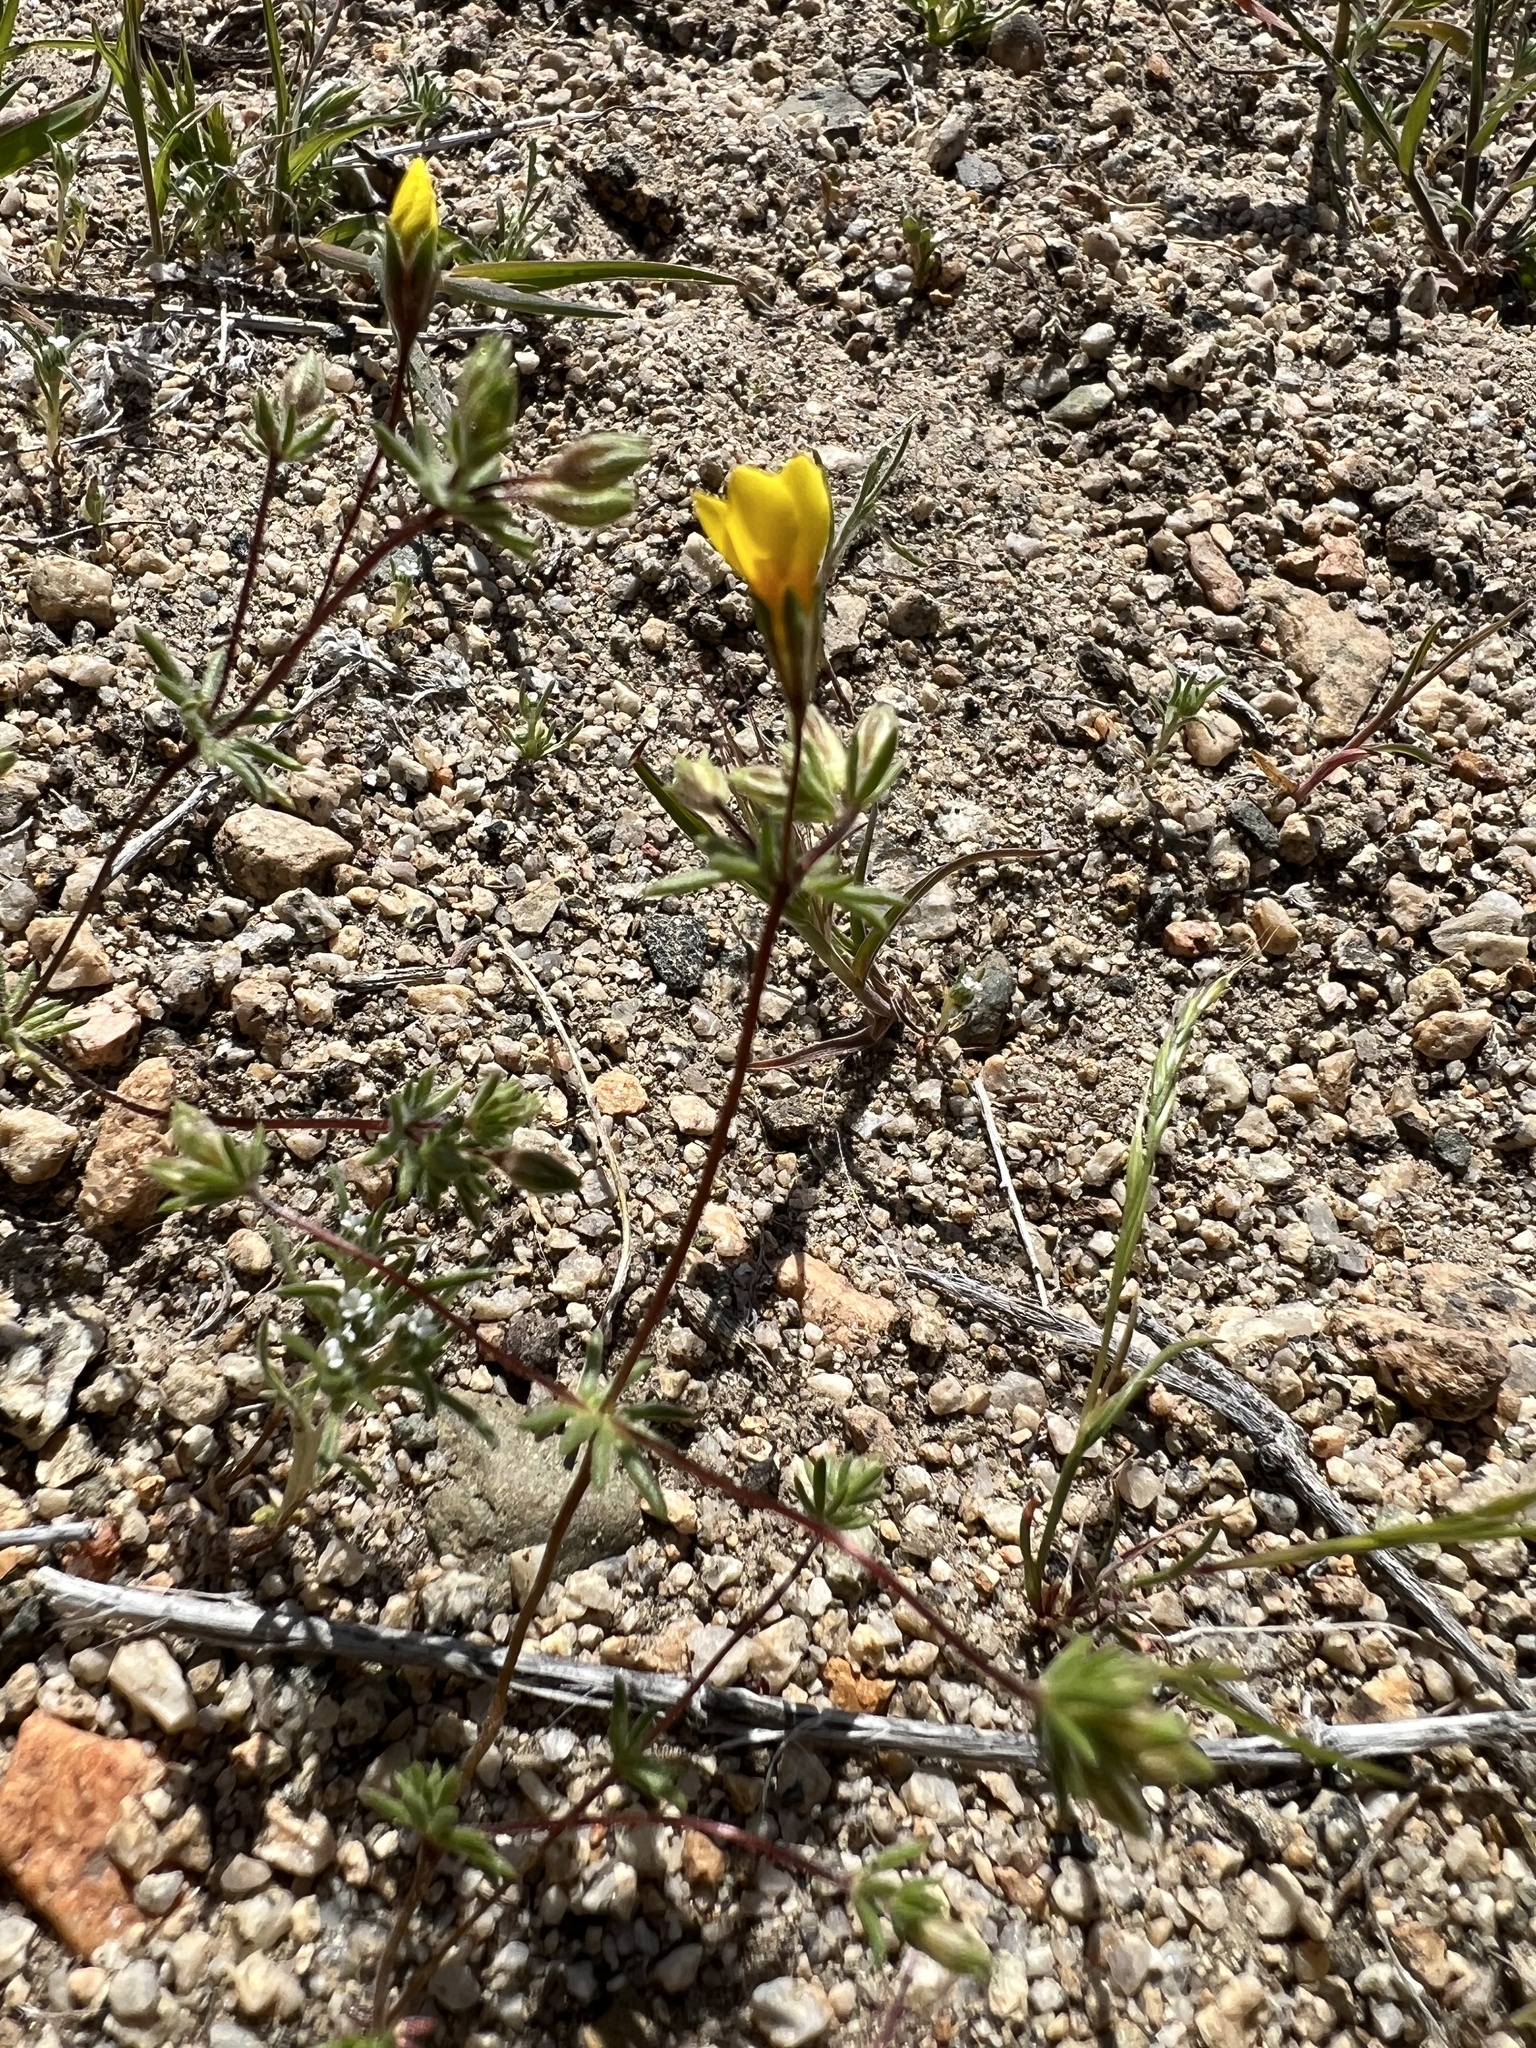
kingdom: Plantae
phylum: Tracheophyta
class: Magnoliopsida
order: Ericales
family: Polemoniaceae
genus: Leptosiphon
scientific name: Leptosiphon chrysanthus
